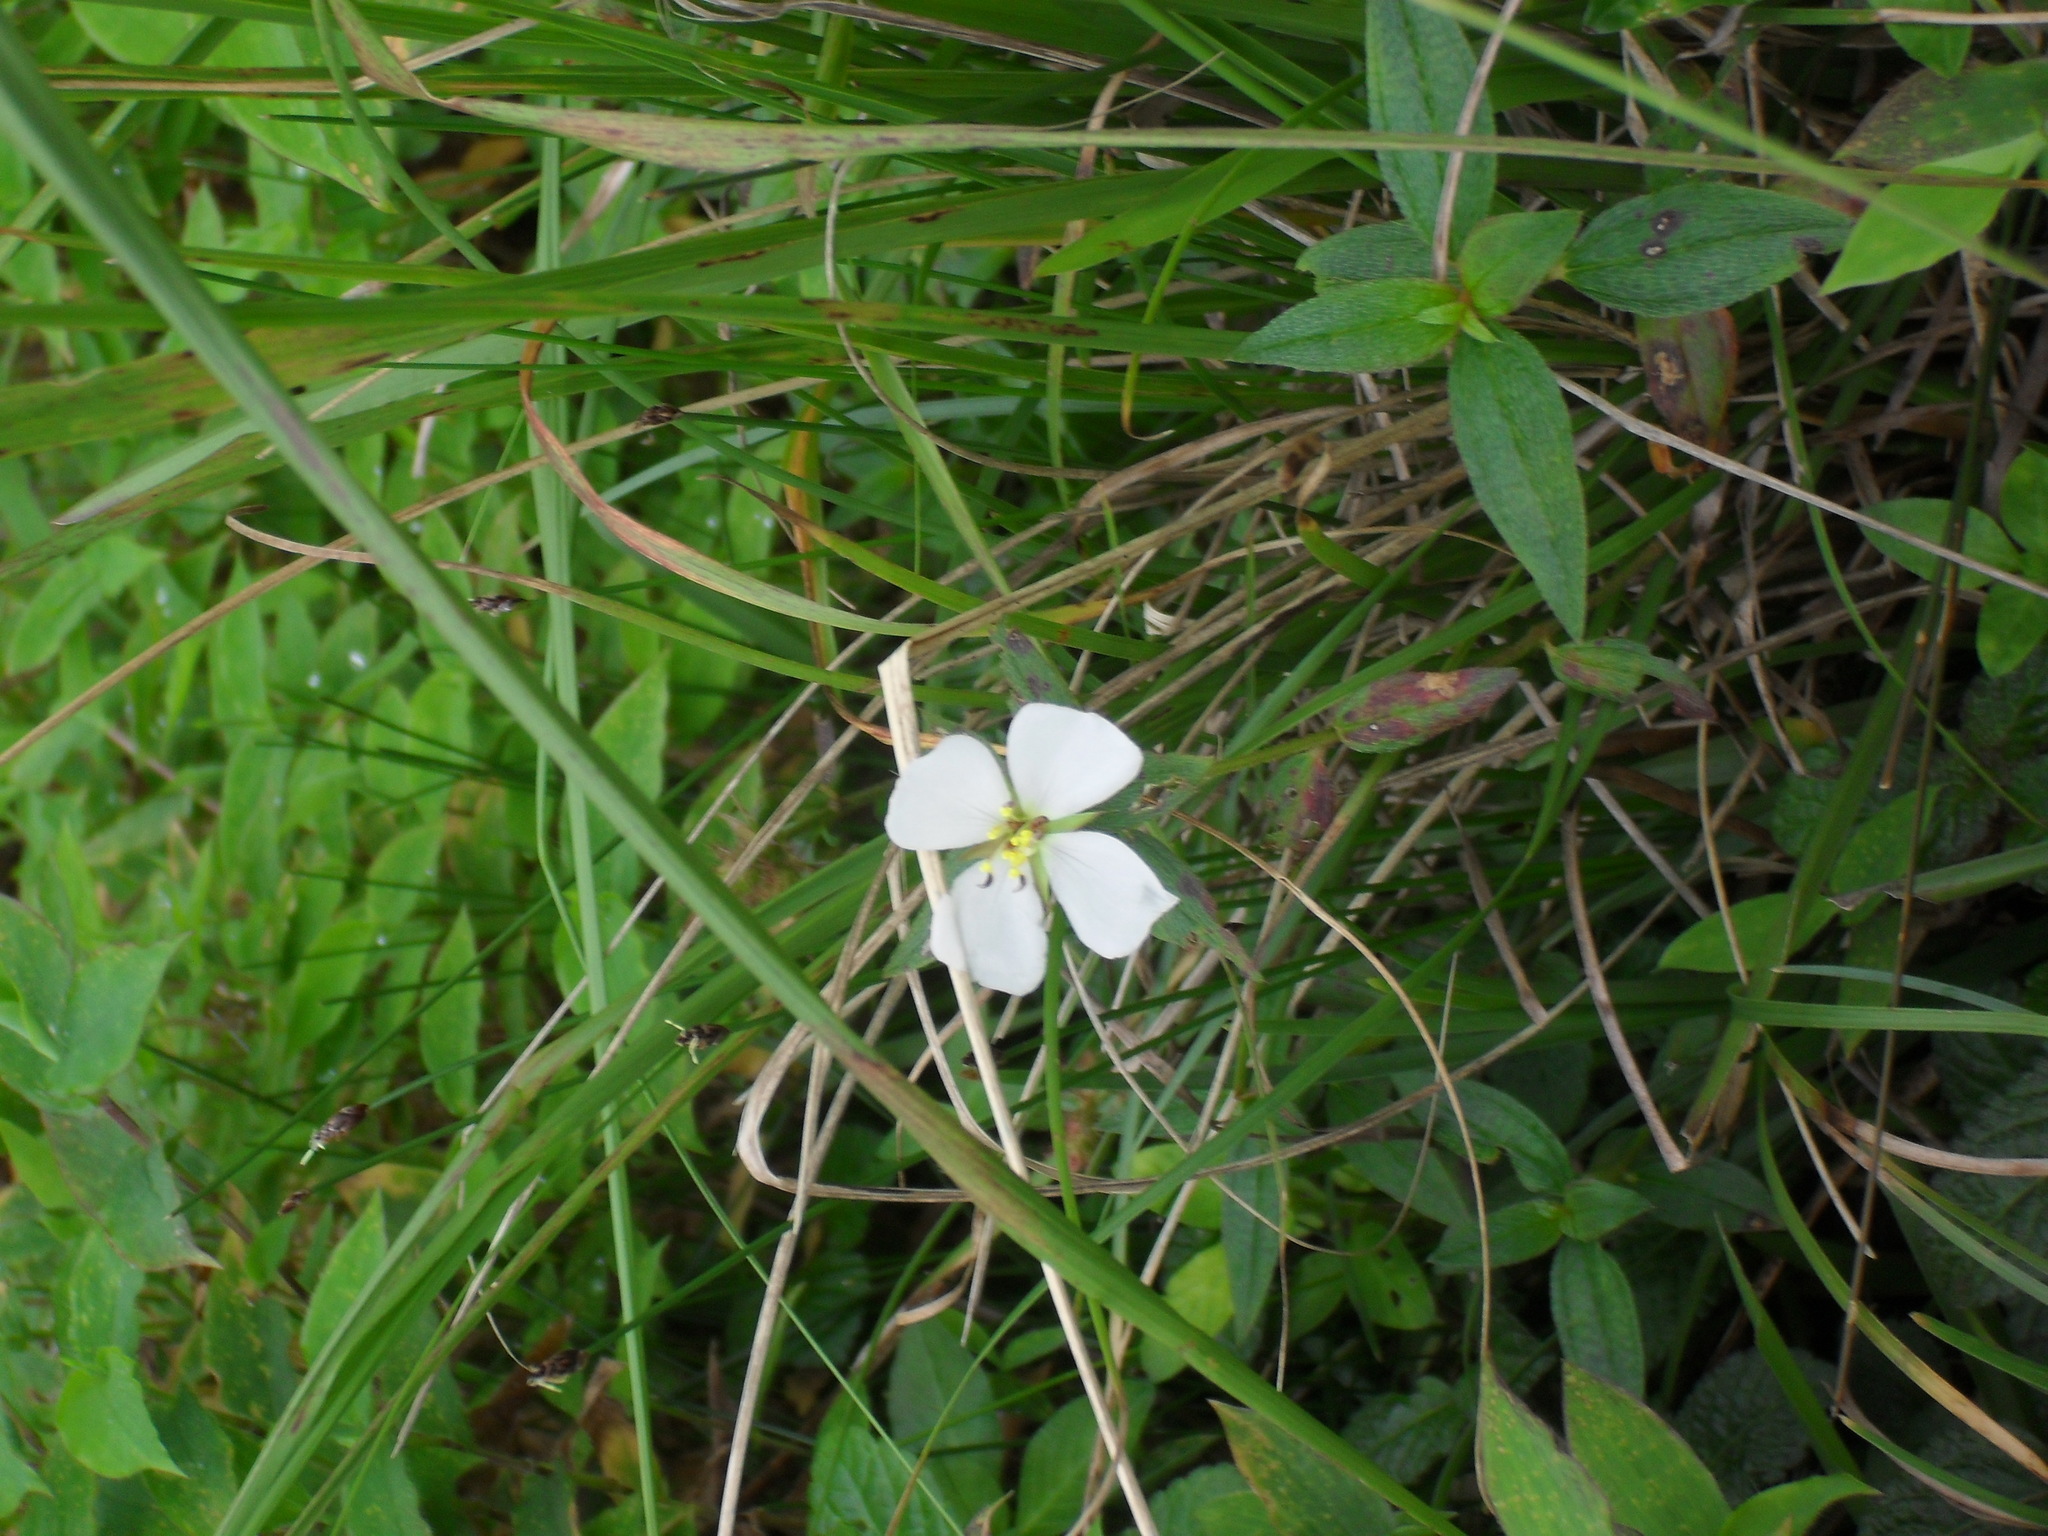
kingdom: Plantae
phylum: Tracheophyta
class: Magnoliopsida
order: Myrtales
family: Melastomataceae
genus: Pterolepis
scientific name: Pterolepis glomerata
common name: False meadowbeauty
